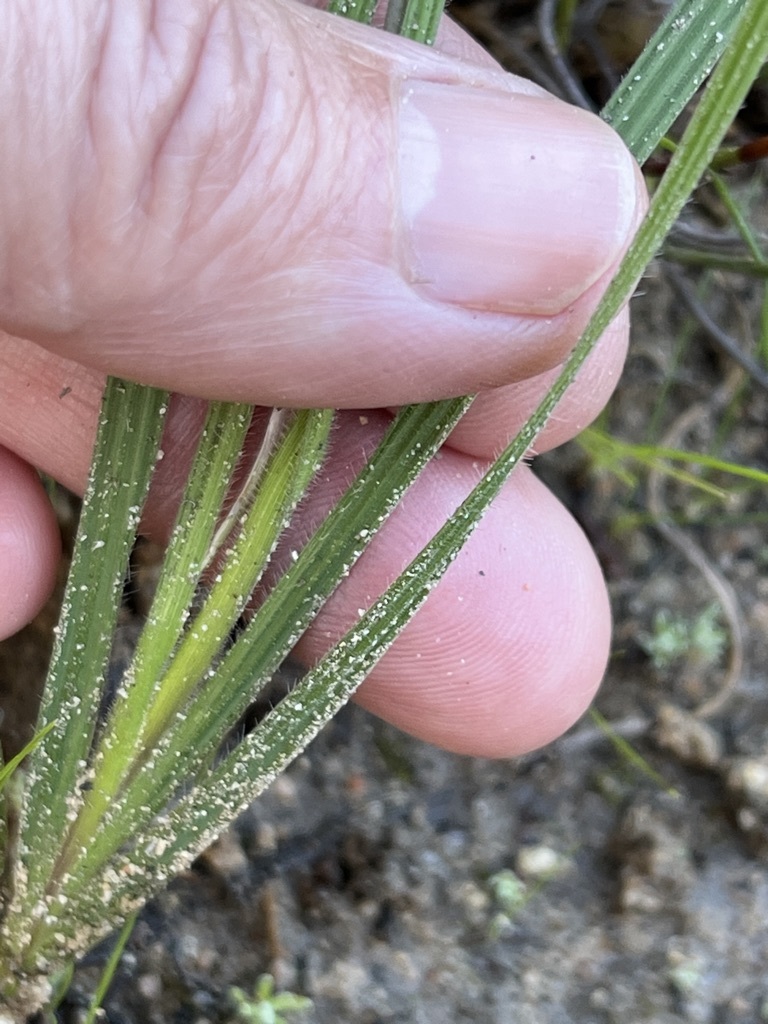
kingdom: Plantae
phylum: Tracheophyta
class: Liliopsida
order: Asparagales
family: Iridaceae
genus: Babiana
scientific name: Babiana mucronata
